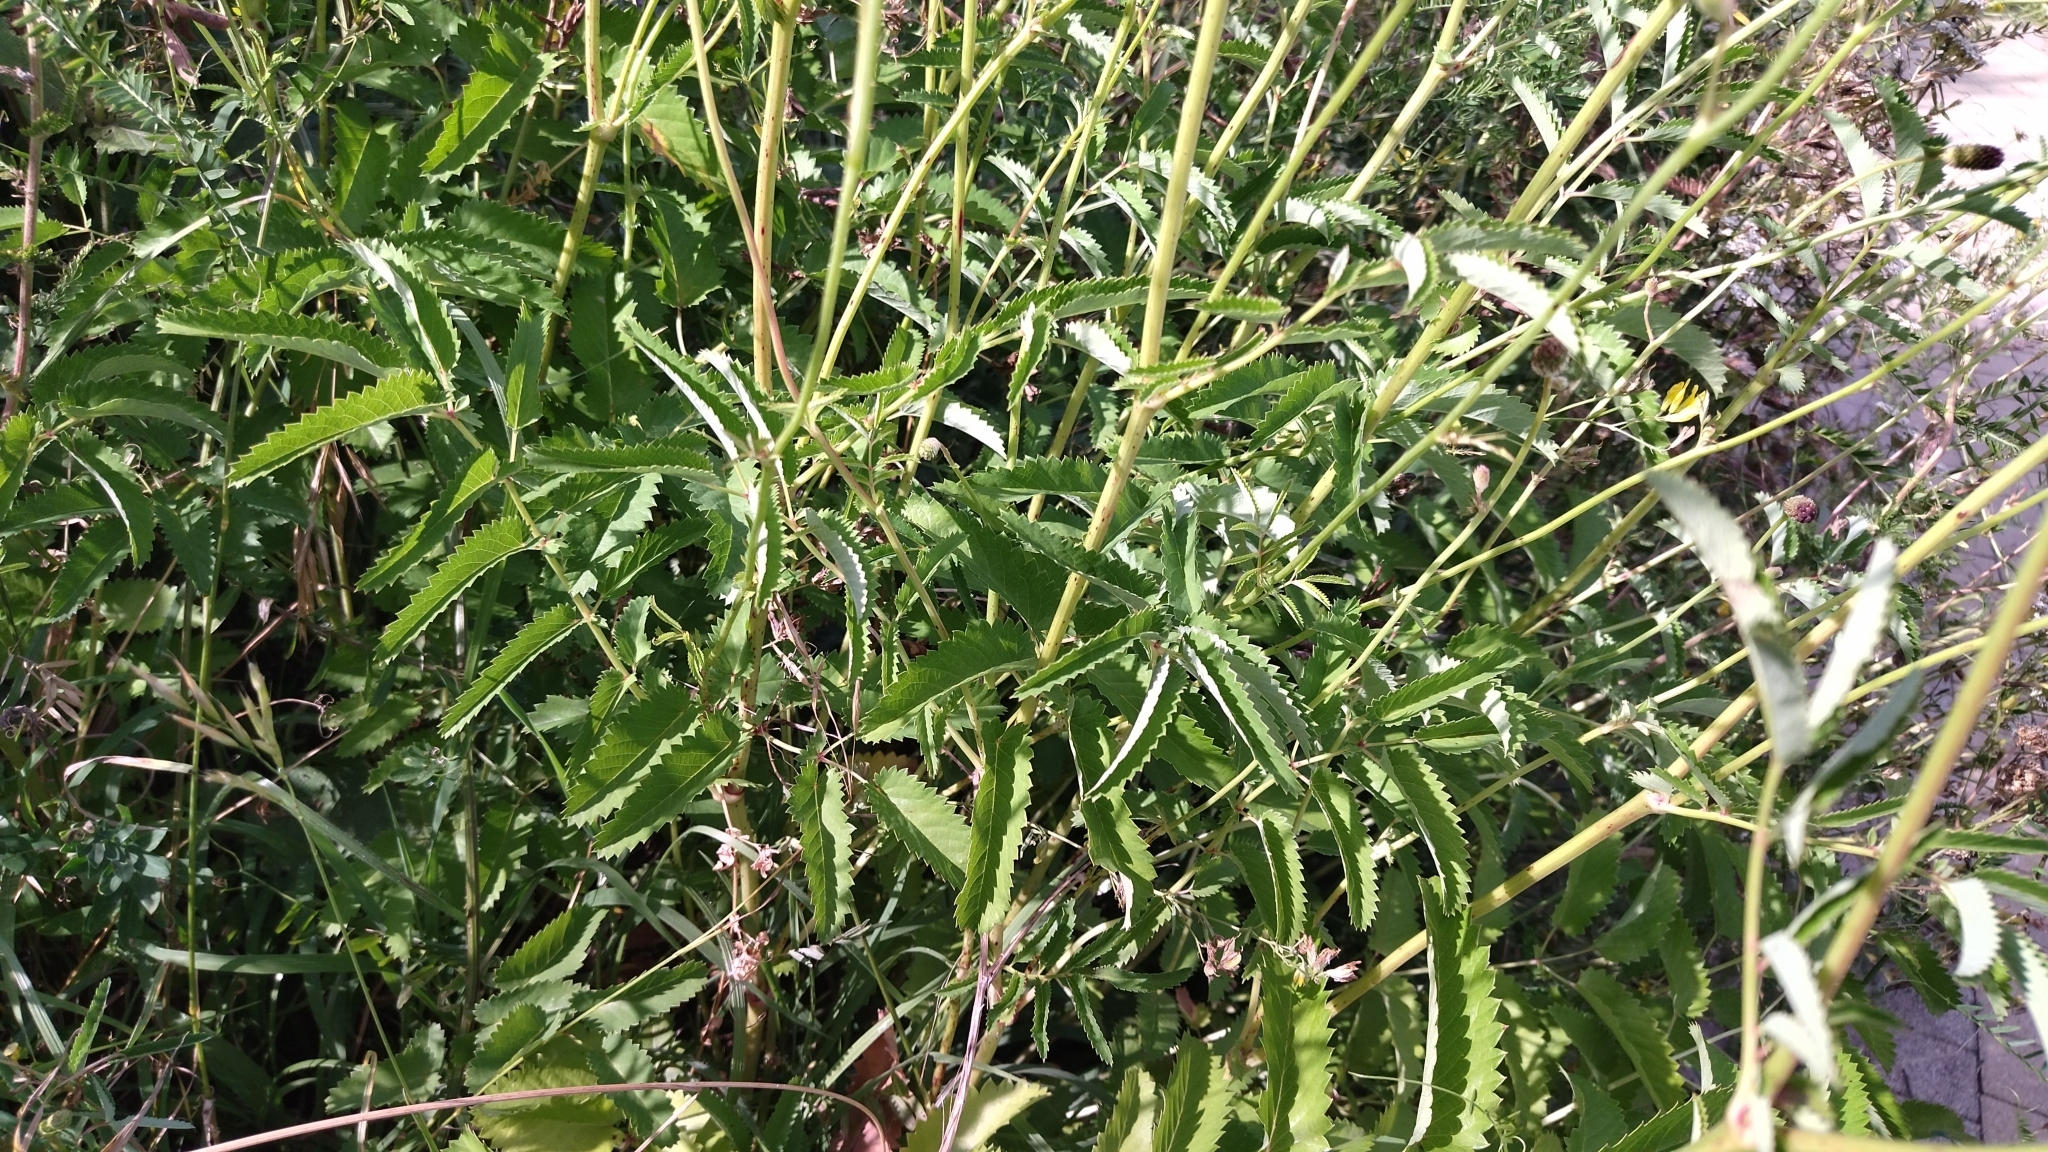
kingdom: Plantae
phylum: Tracheophyta
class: Magnoliopsida
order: Rosales
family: Rosaceae
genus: Sanguisorba
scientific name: Sanguisorba officinalis
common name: Great burnet
